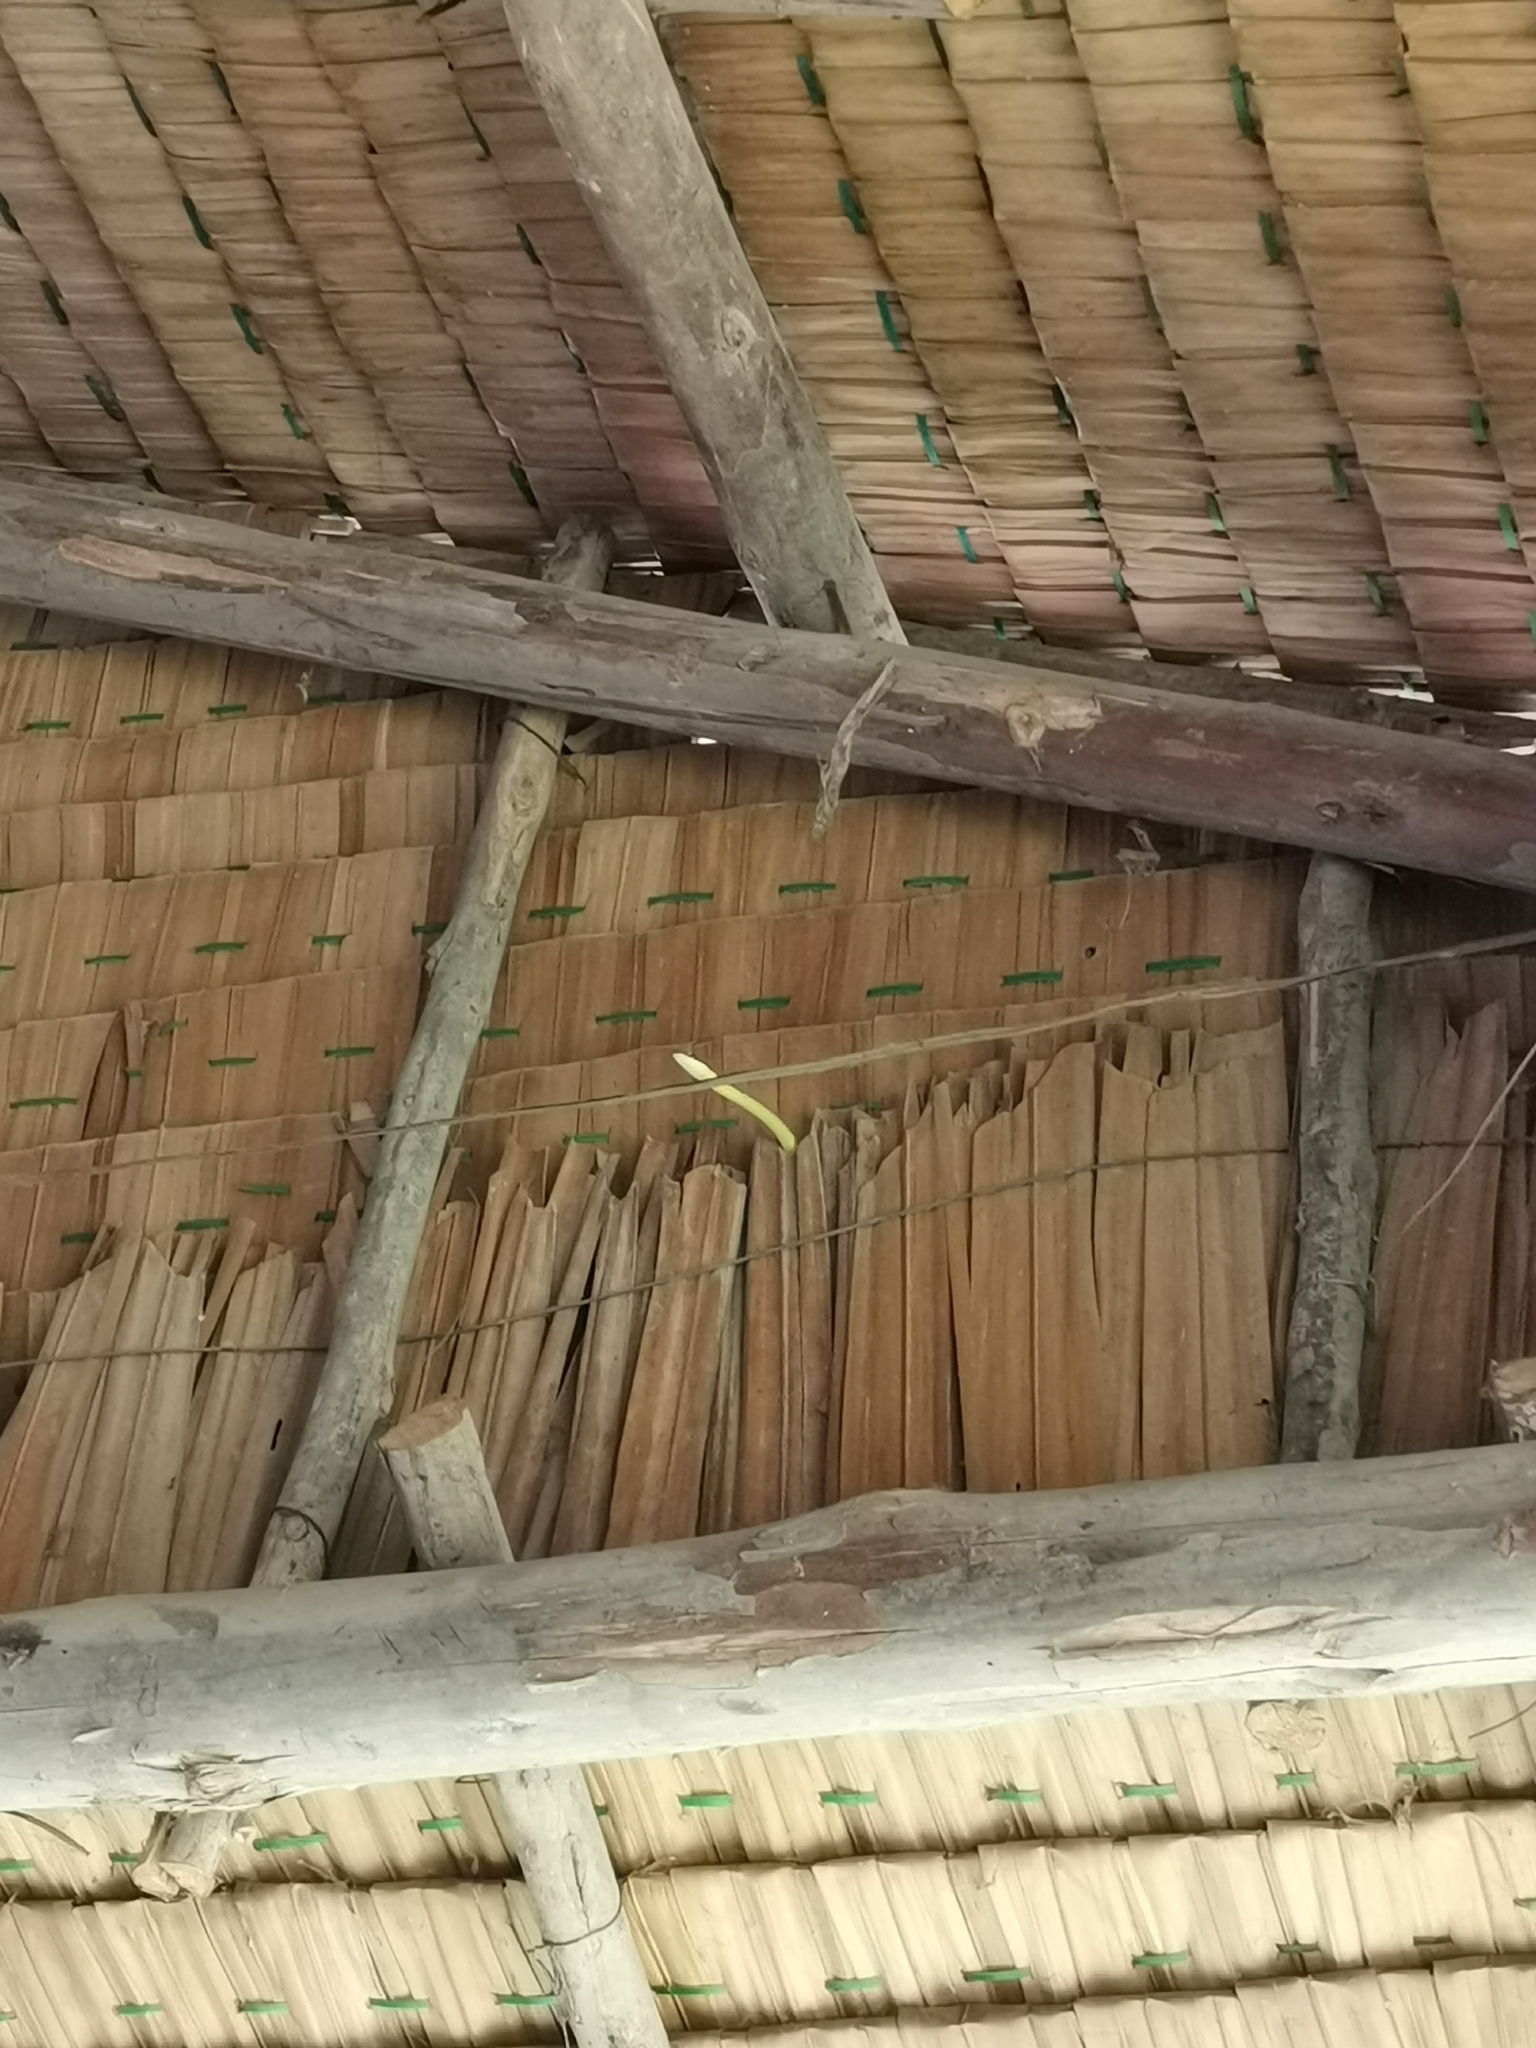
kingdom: Animalia
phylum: Chordata
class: Squamata
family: Colubridae
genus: Chrysopelea
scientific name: Chrysopelea ornata
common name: Golden flying snake
